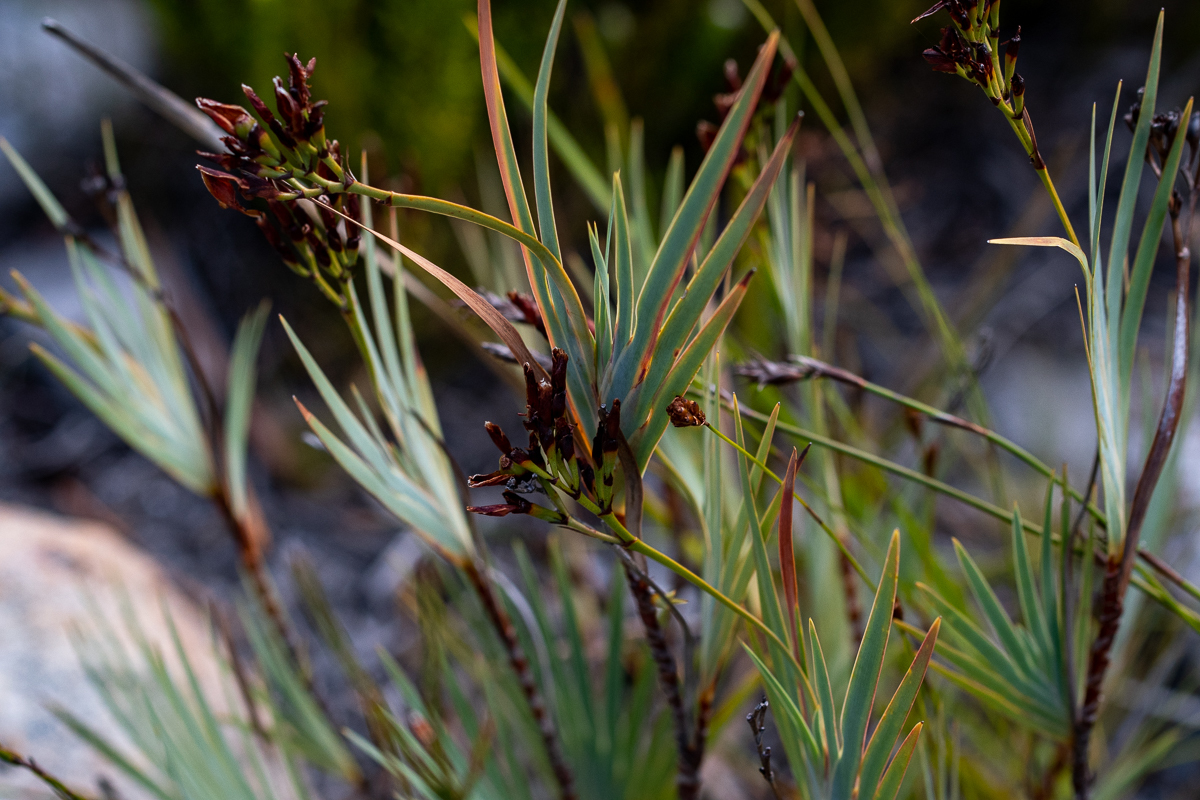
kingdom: Plantae
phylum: Tracheophyta
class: Liliopsida
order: Asparagales
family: Iridaceae
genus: Nivenia
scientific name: Nivenia stokoei
